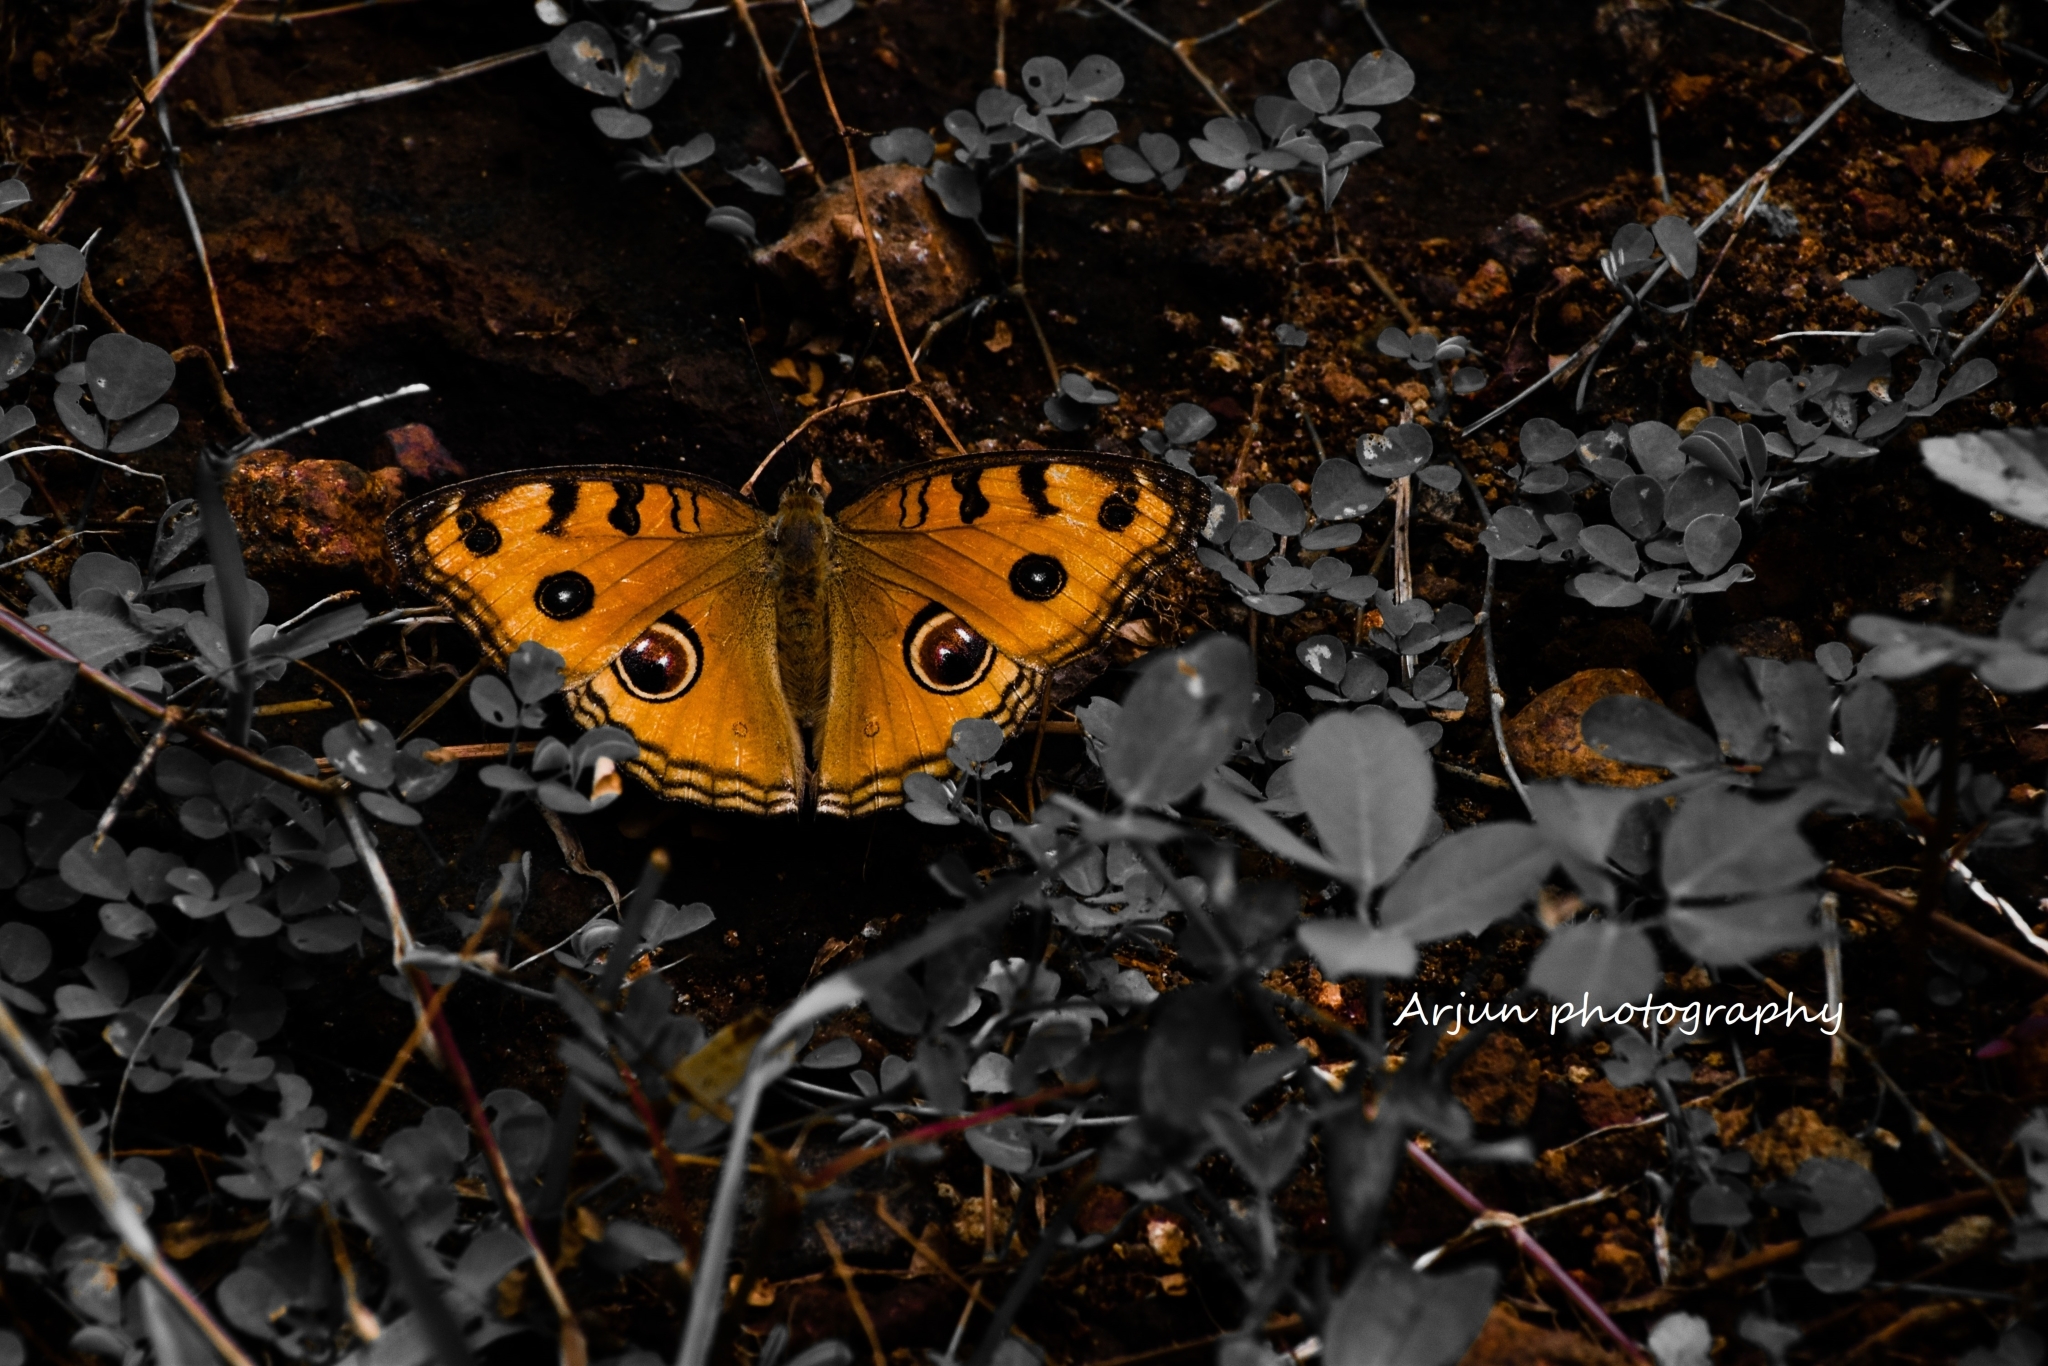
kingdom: Animalia
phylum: Arthropoda
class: Insecta
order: Lepidoptera
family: Nymphalidae
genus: Junonia
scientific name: Junonia almana
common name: Peacock pansy
